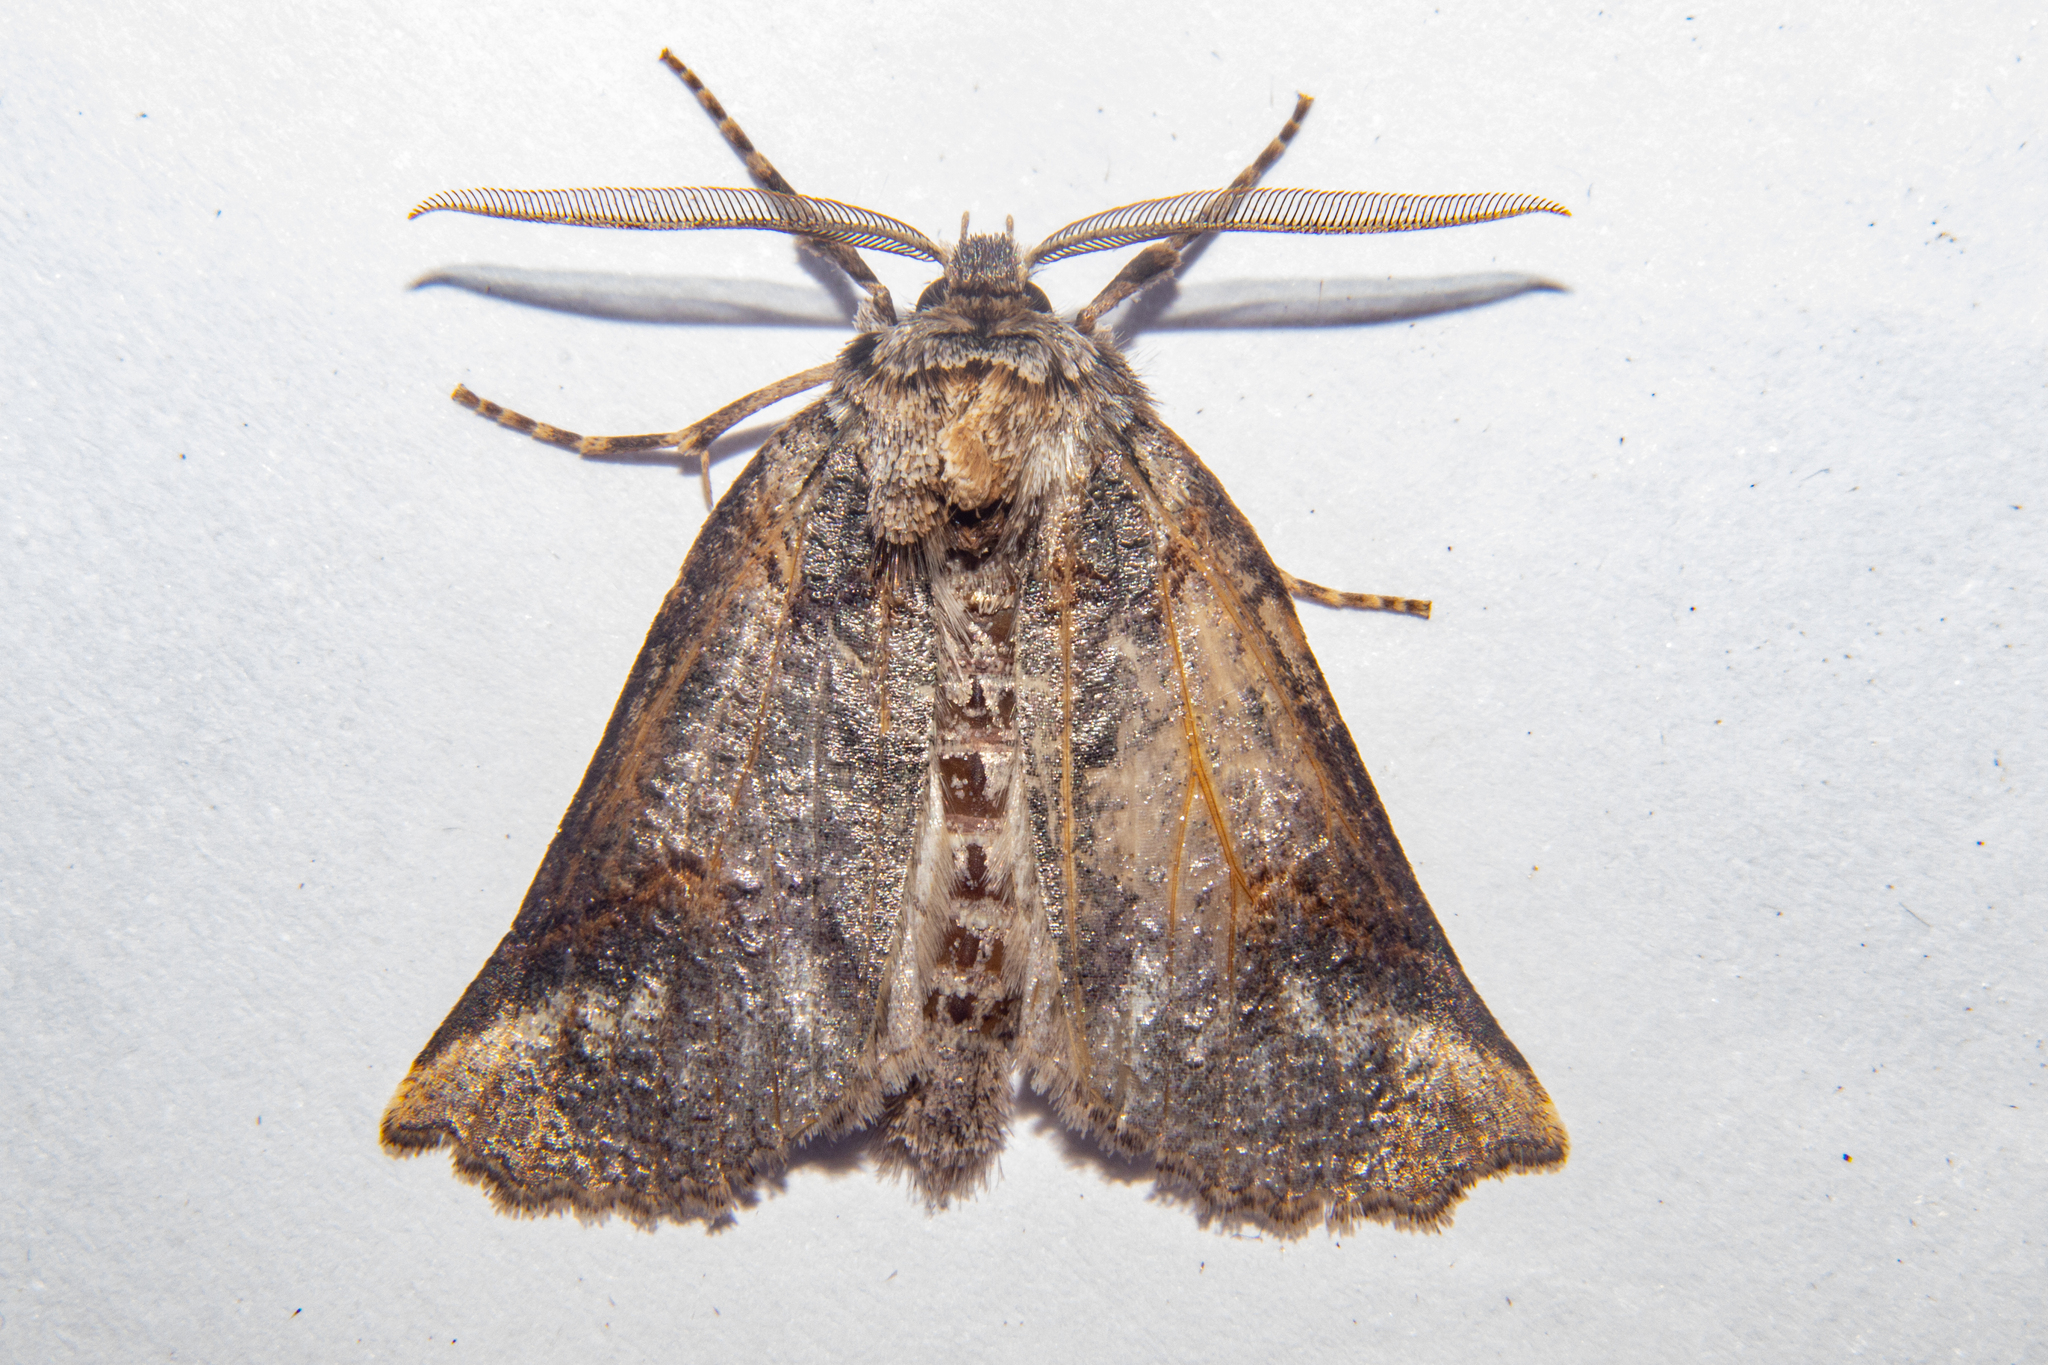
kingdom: Animalia
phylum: Arthropoda
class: Insecta
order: Lepidoptera
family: Geometridae
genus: Declana
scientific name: Declana
